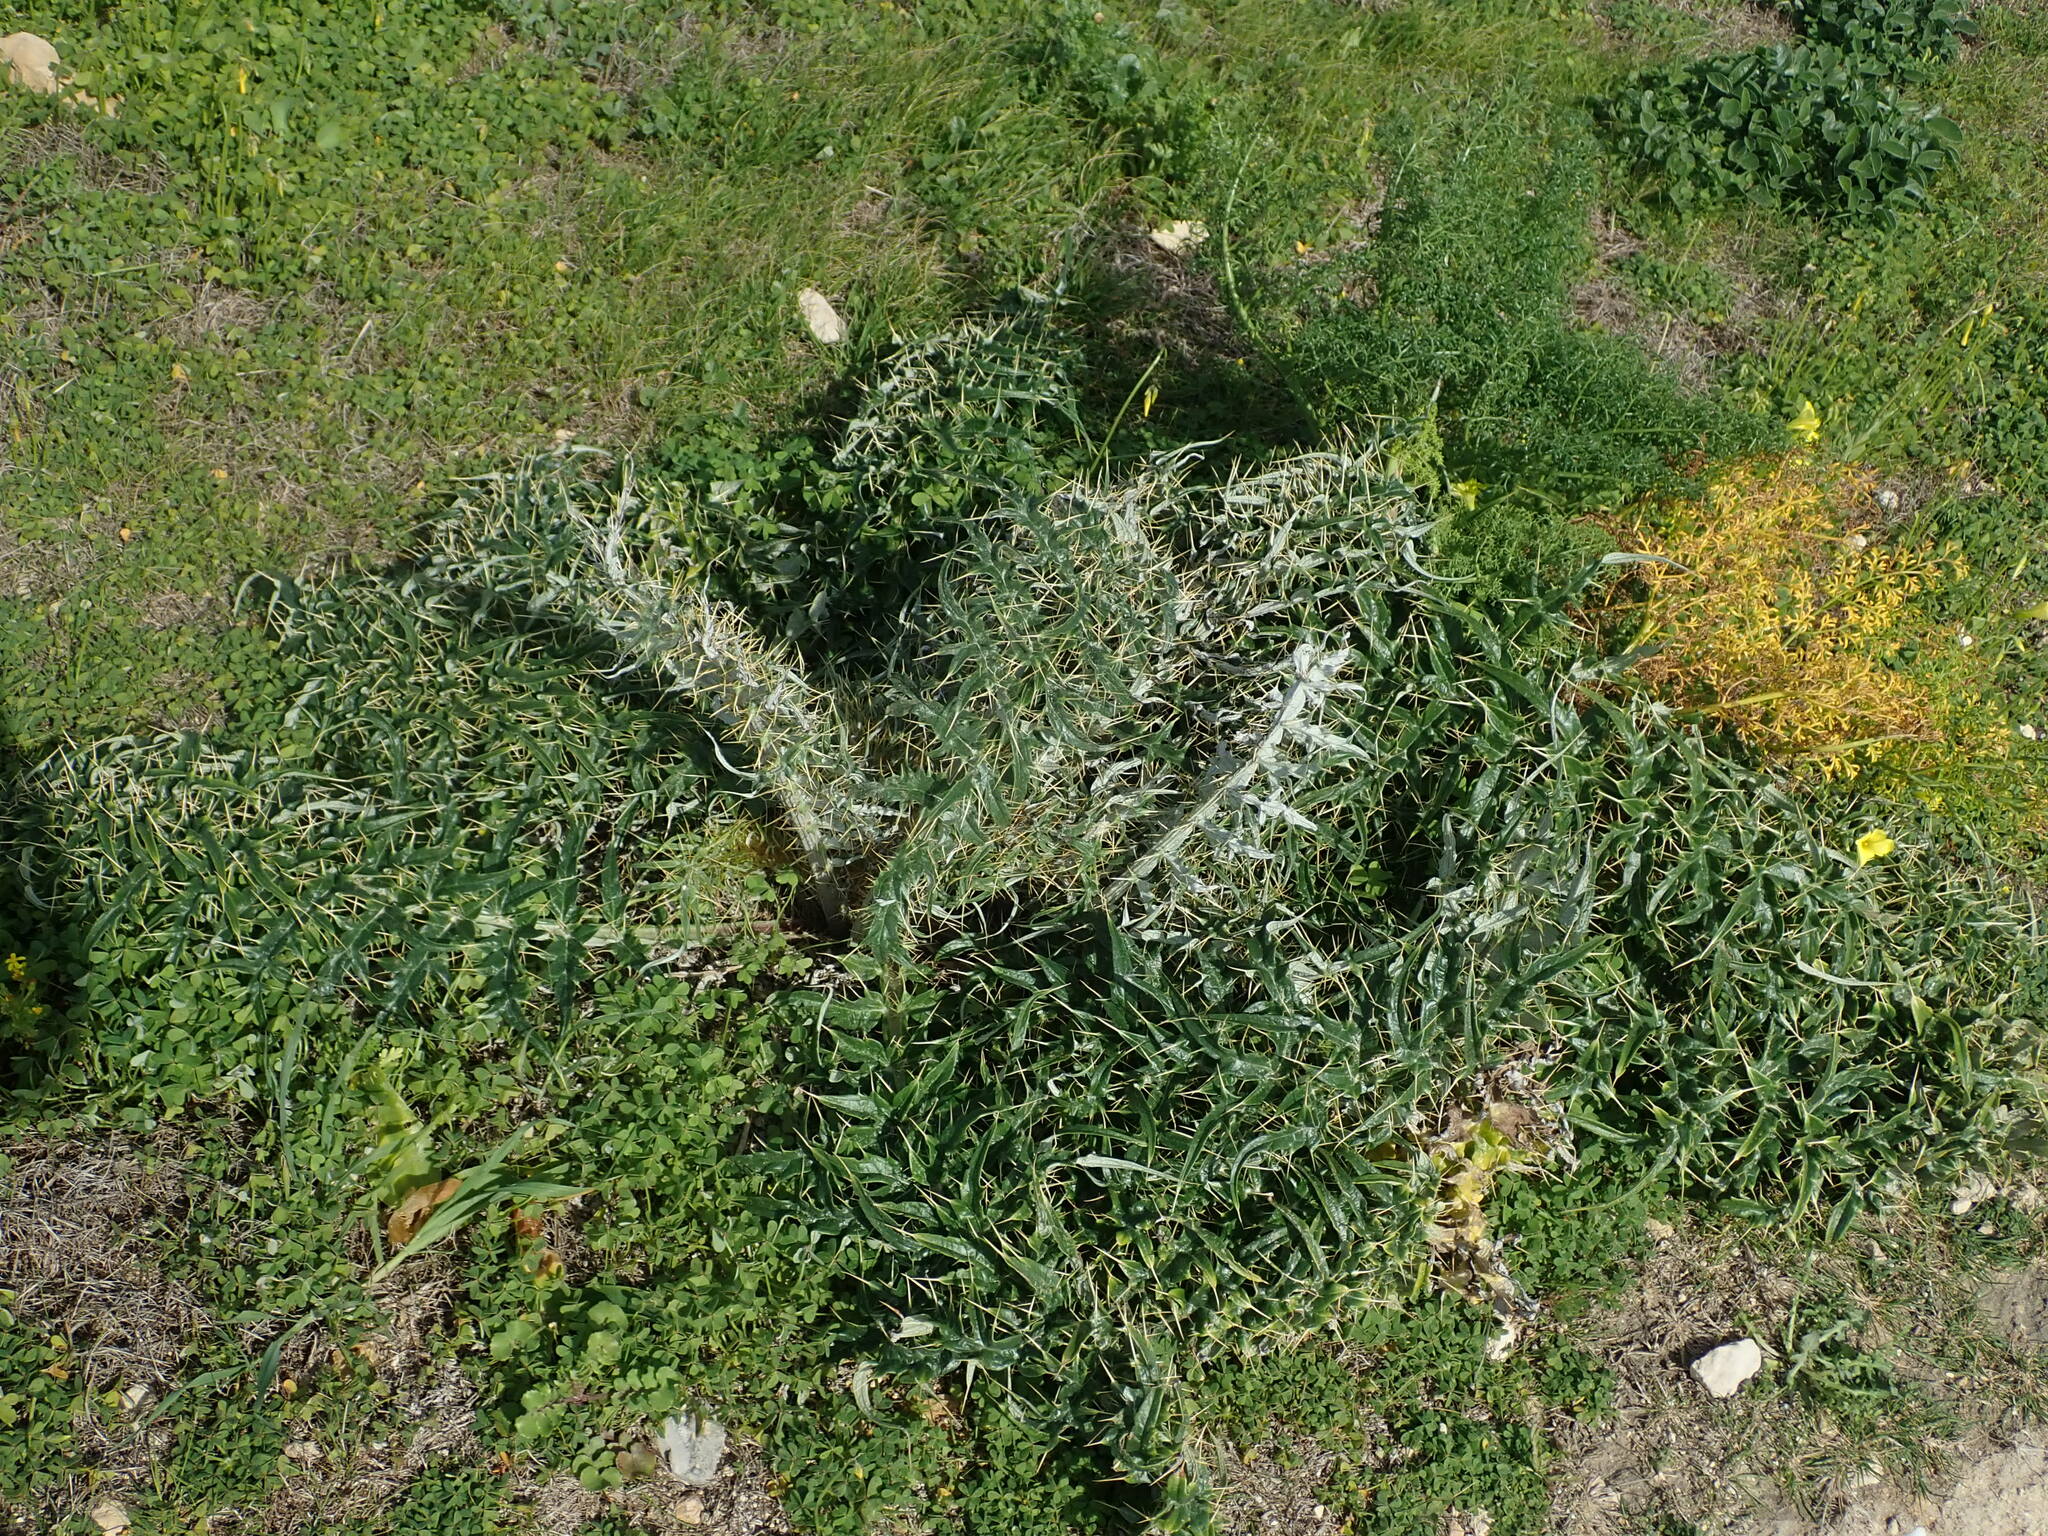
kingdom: Plantae
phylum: Tracheophyta
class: Magnoliopsida
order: Asterales
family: Asteraceae
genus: Cynara
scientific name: Cynara cardunculus
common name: Globe artichoke
